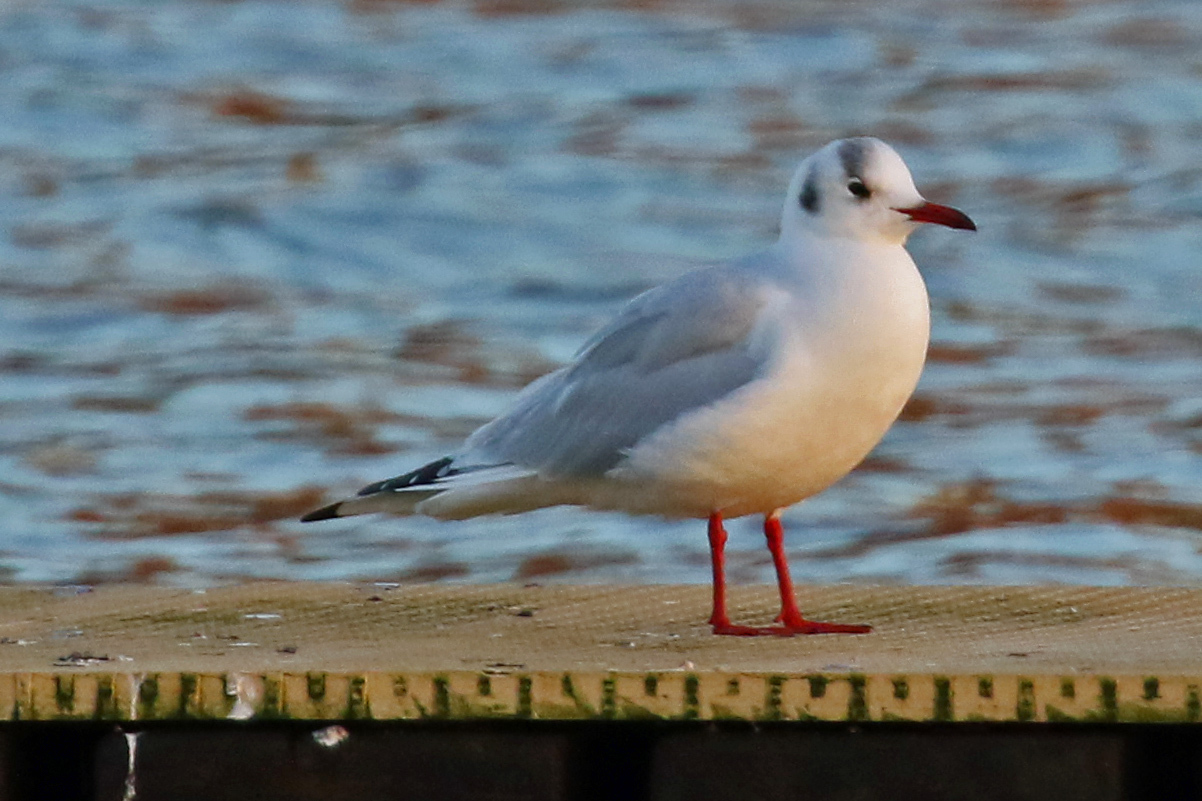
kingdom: Animalia
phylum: Chordata
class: Aves
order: Charadriiformes
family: Laridae
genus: Chroicocephalus
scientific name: Chroicocephalus ridibundus
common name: Black-headed gull
